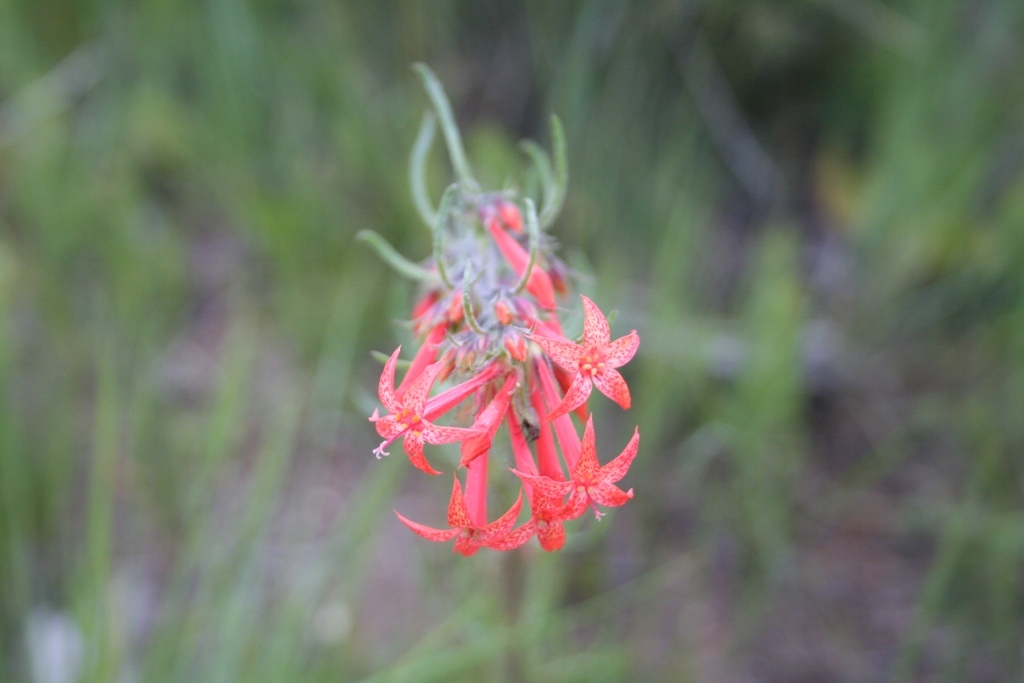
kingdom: Plantae
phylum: Tracheophyta
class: Magnoliopsida
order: Ericales
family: Polemoniaceae
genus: Ipomopsis
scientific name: Ipomopsis aggregata
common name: Scarlet gilia
